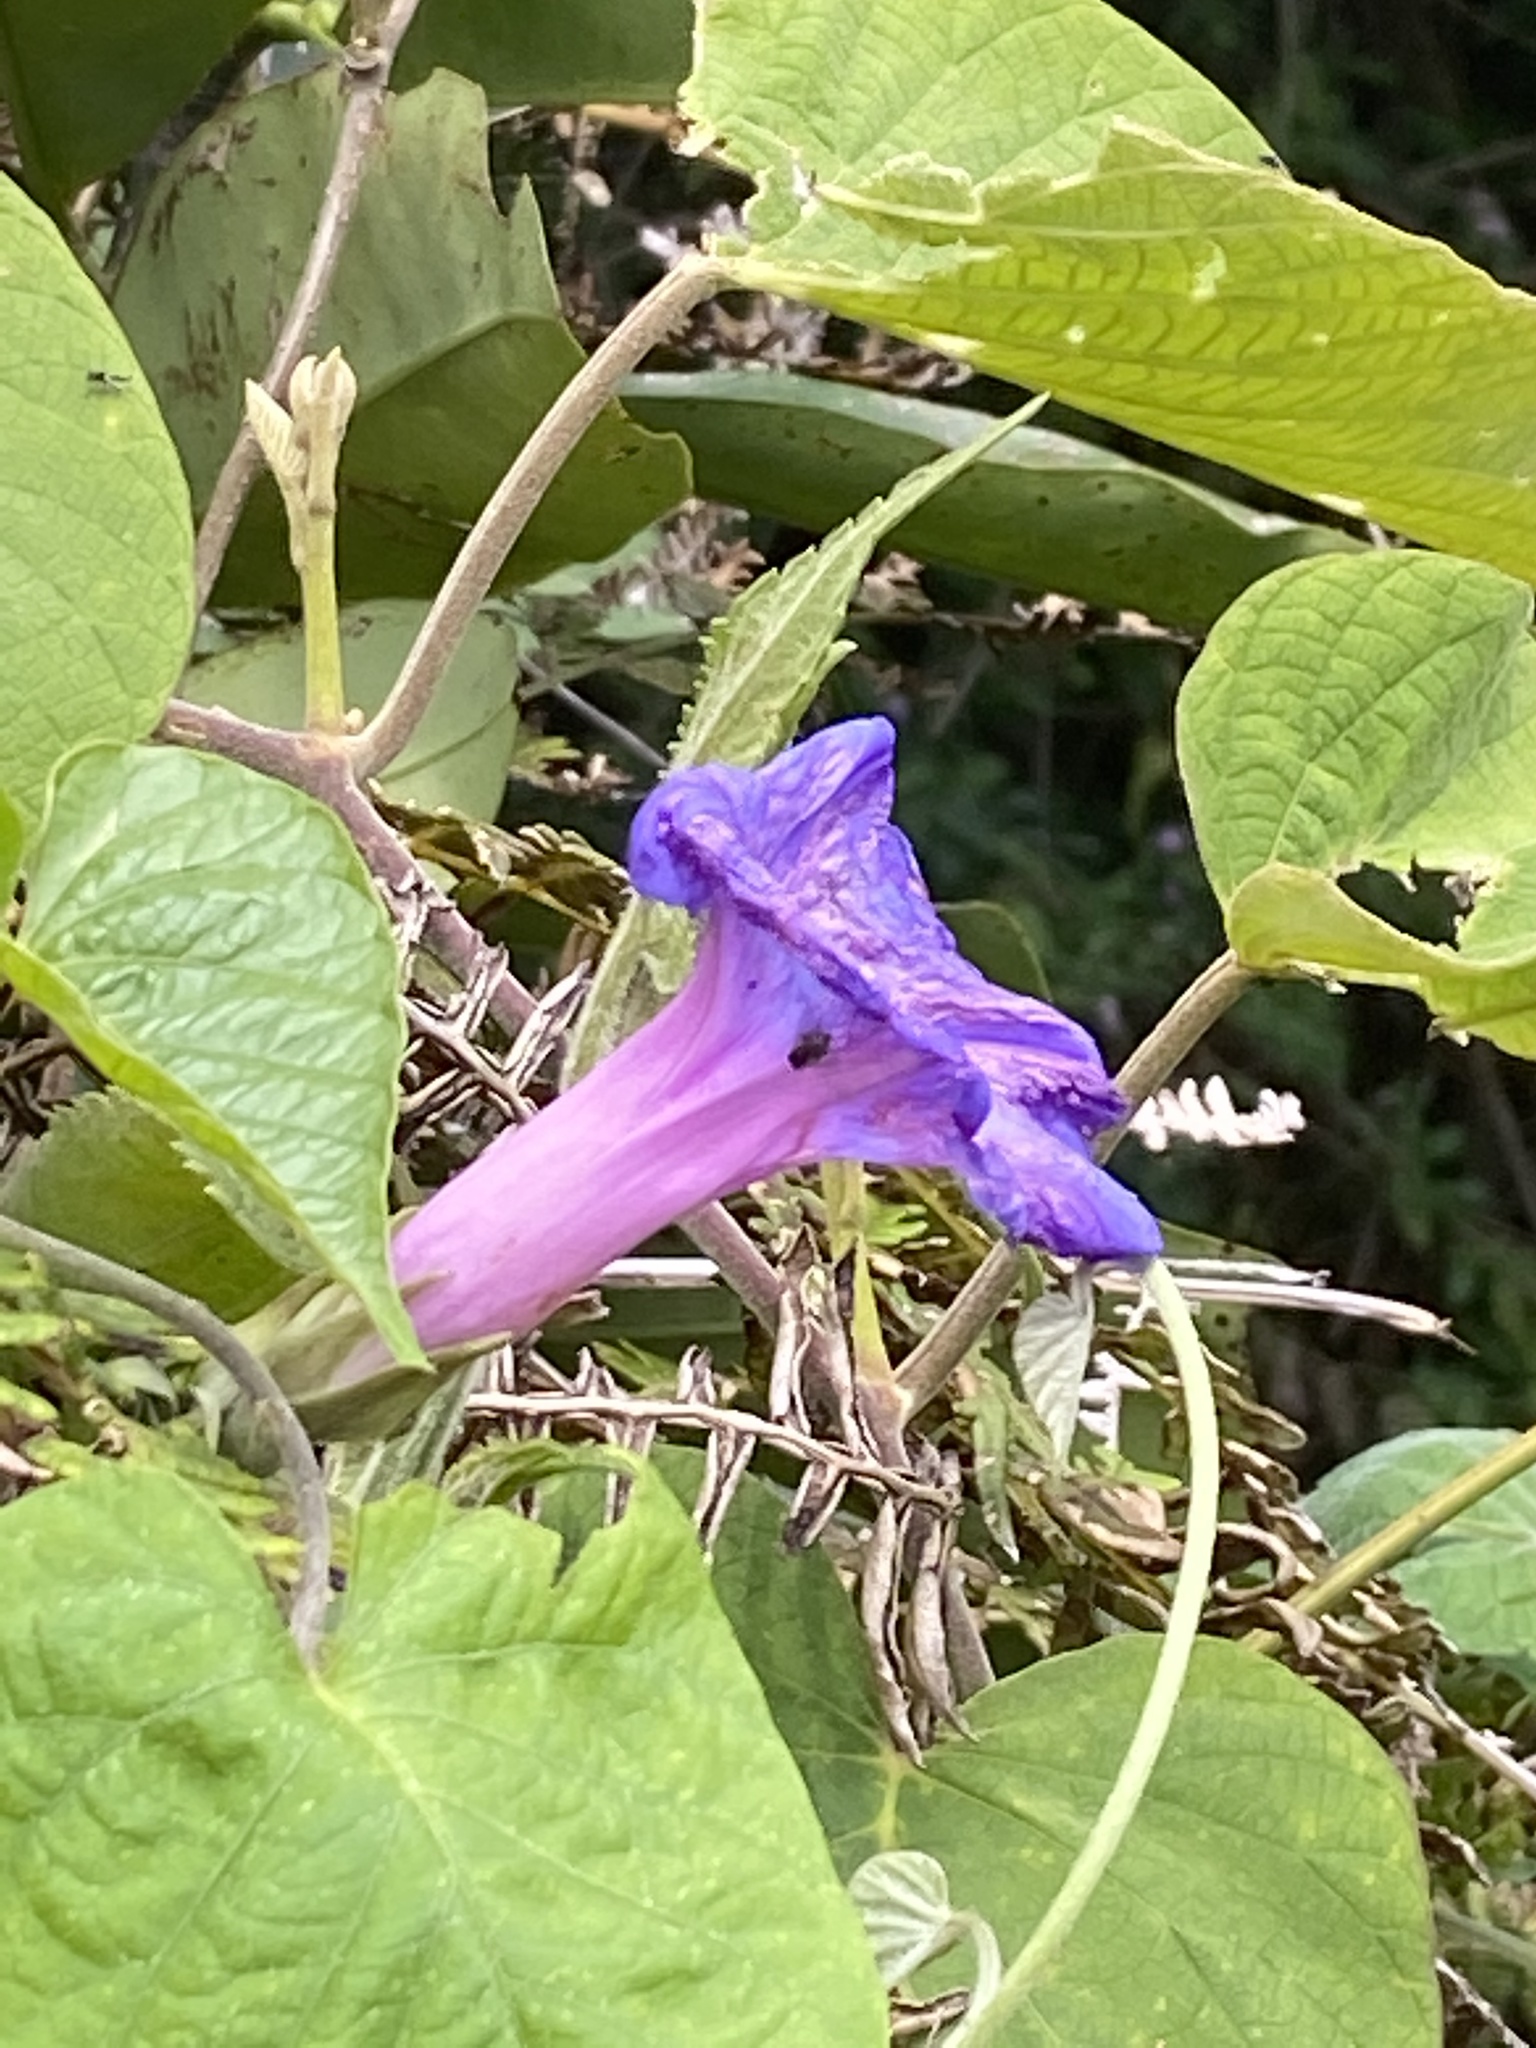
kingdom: Plantae
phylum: Tracheophyta
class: Magnoliopsida
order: Solanales
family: Convolvulaceae
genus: Ipomoea
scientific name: Ipomoea indica
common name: Blue dawnflower
